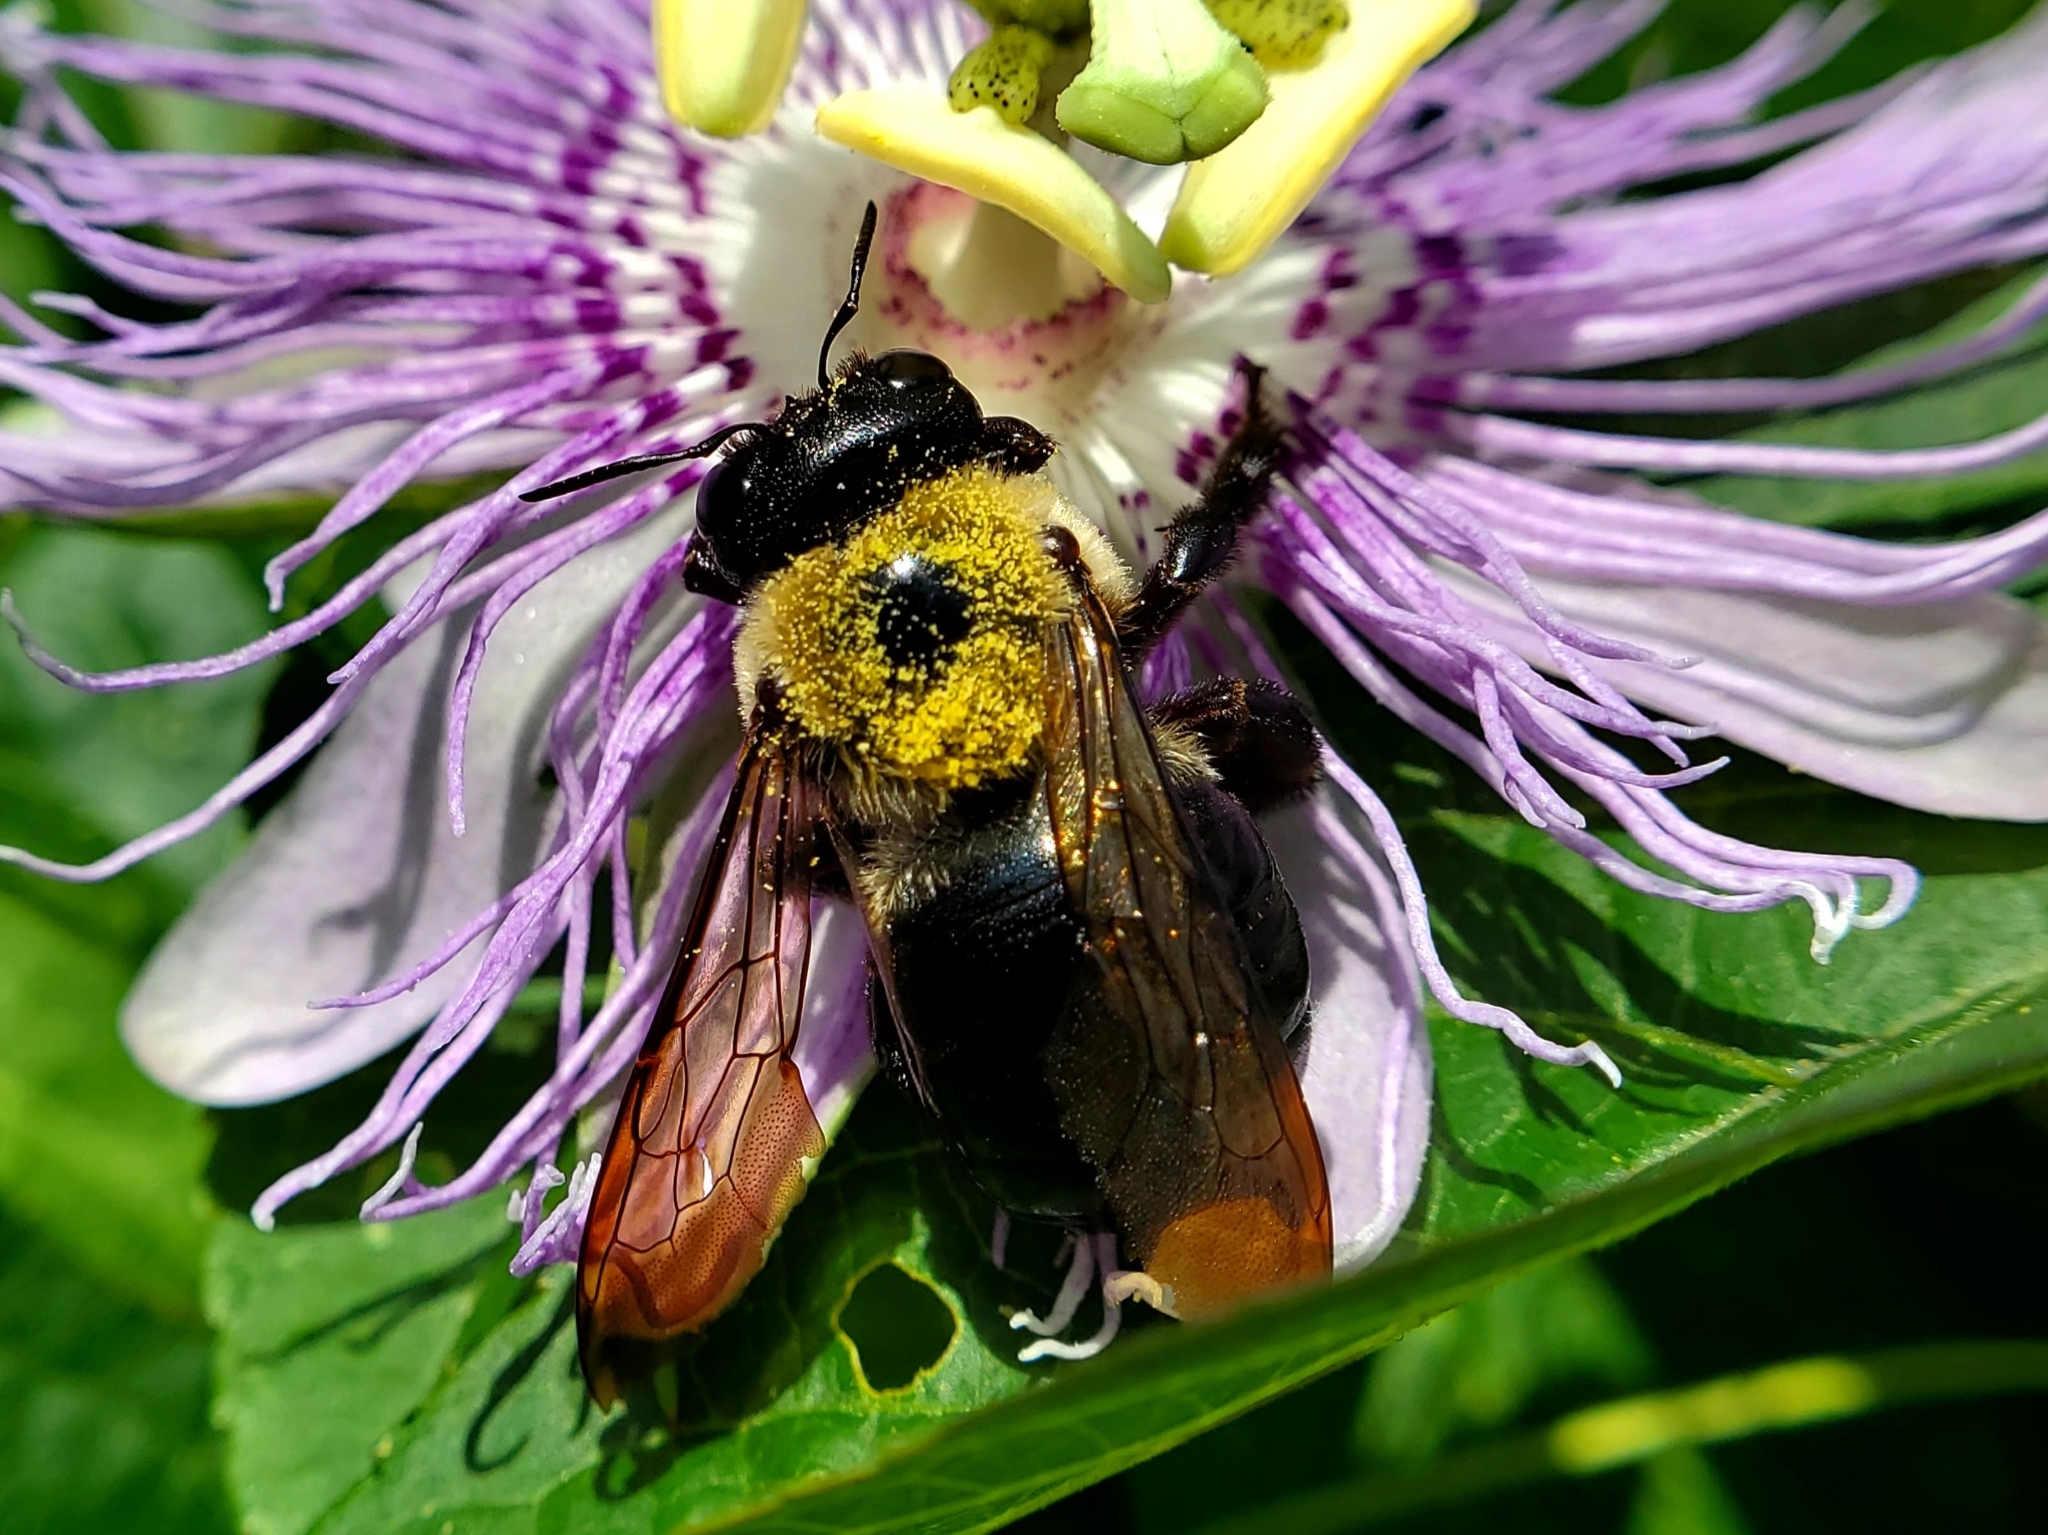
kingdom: Animalia
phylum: Arthropoda
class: Insecta
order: Hymenoptera
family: Apidae
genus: Xylocopa
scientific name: Xylocopa virginica
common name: Carpenter bee
